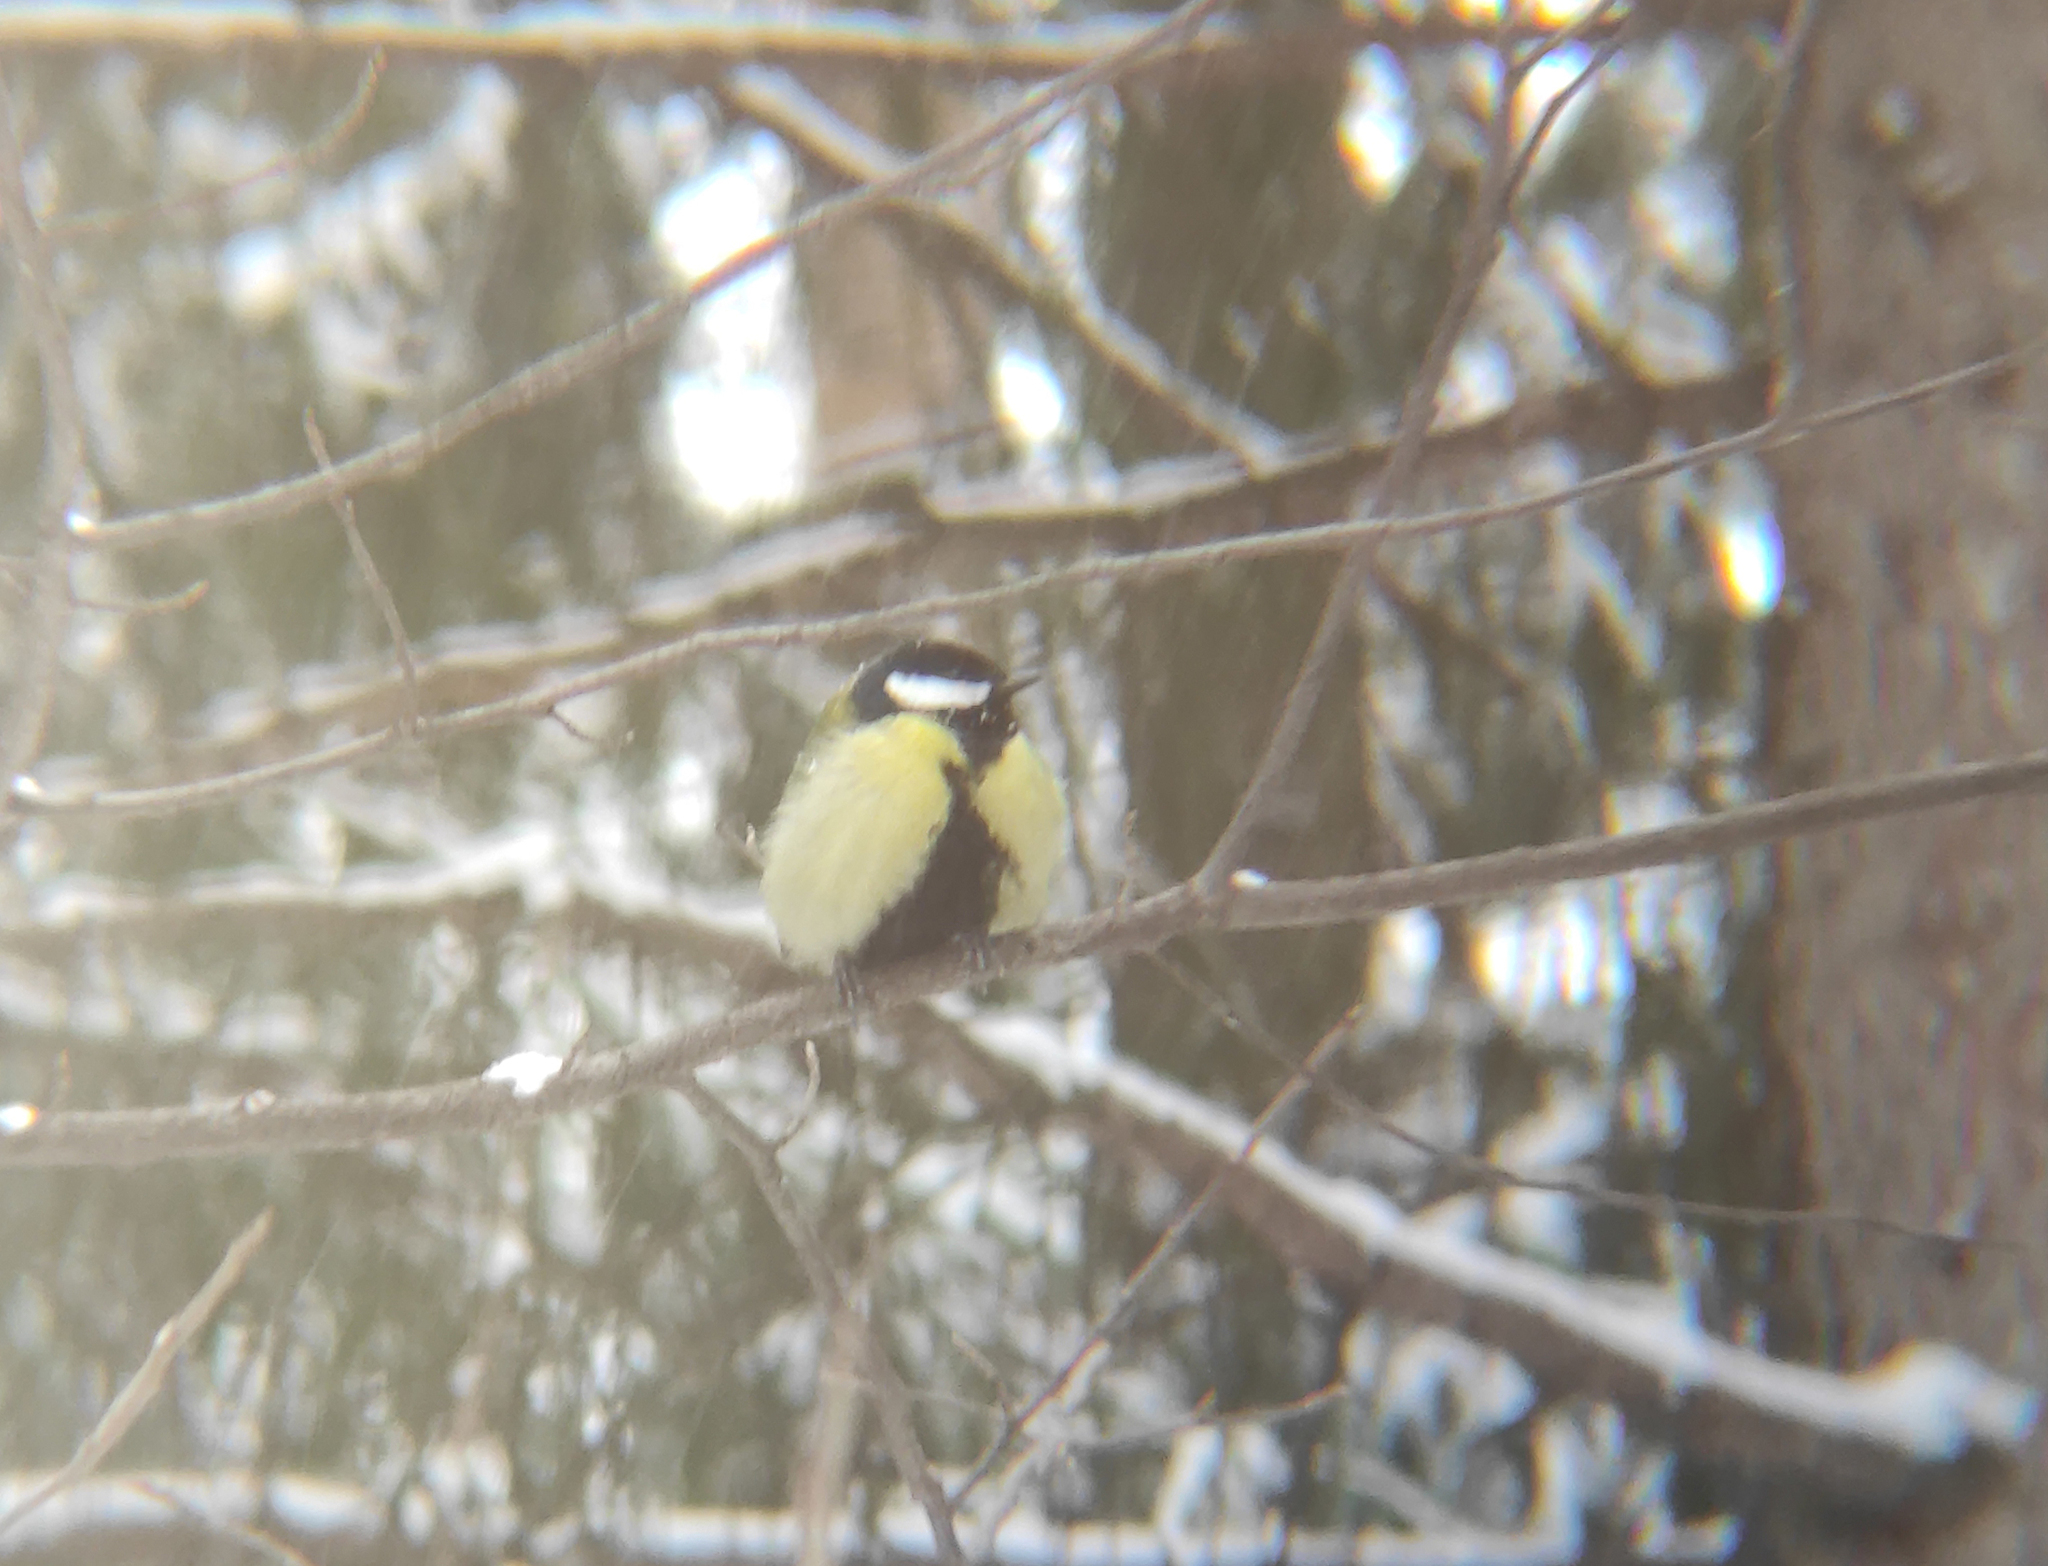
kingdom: Animalia
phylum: Chordata
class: Aves
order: Passeriformes
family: Paridae
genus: Parus
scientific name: Parus major
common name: Great tit
